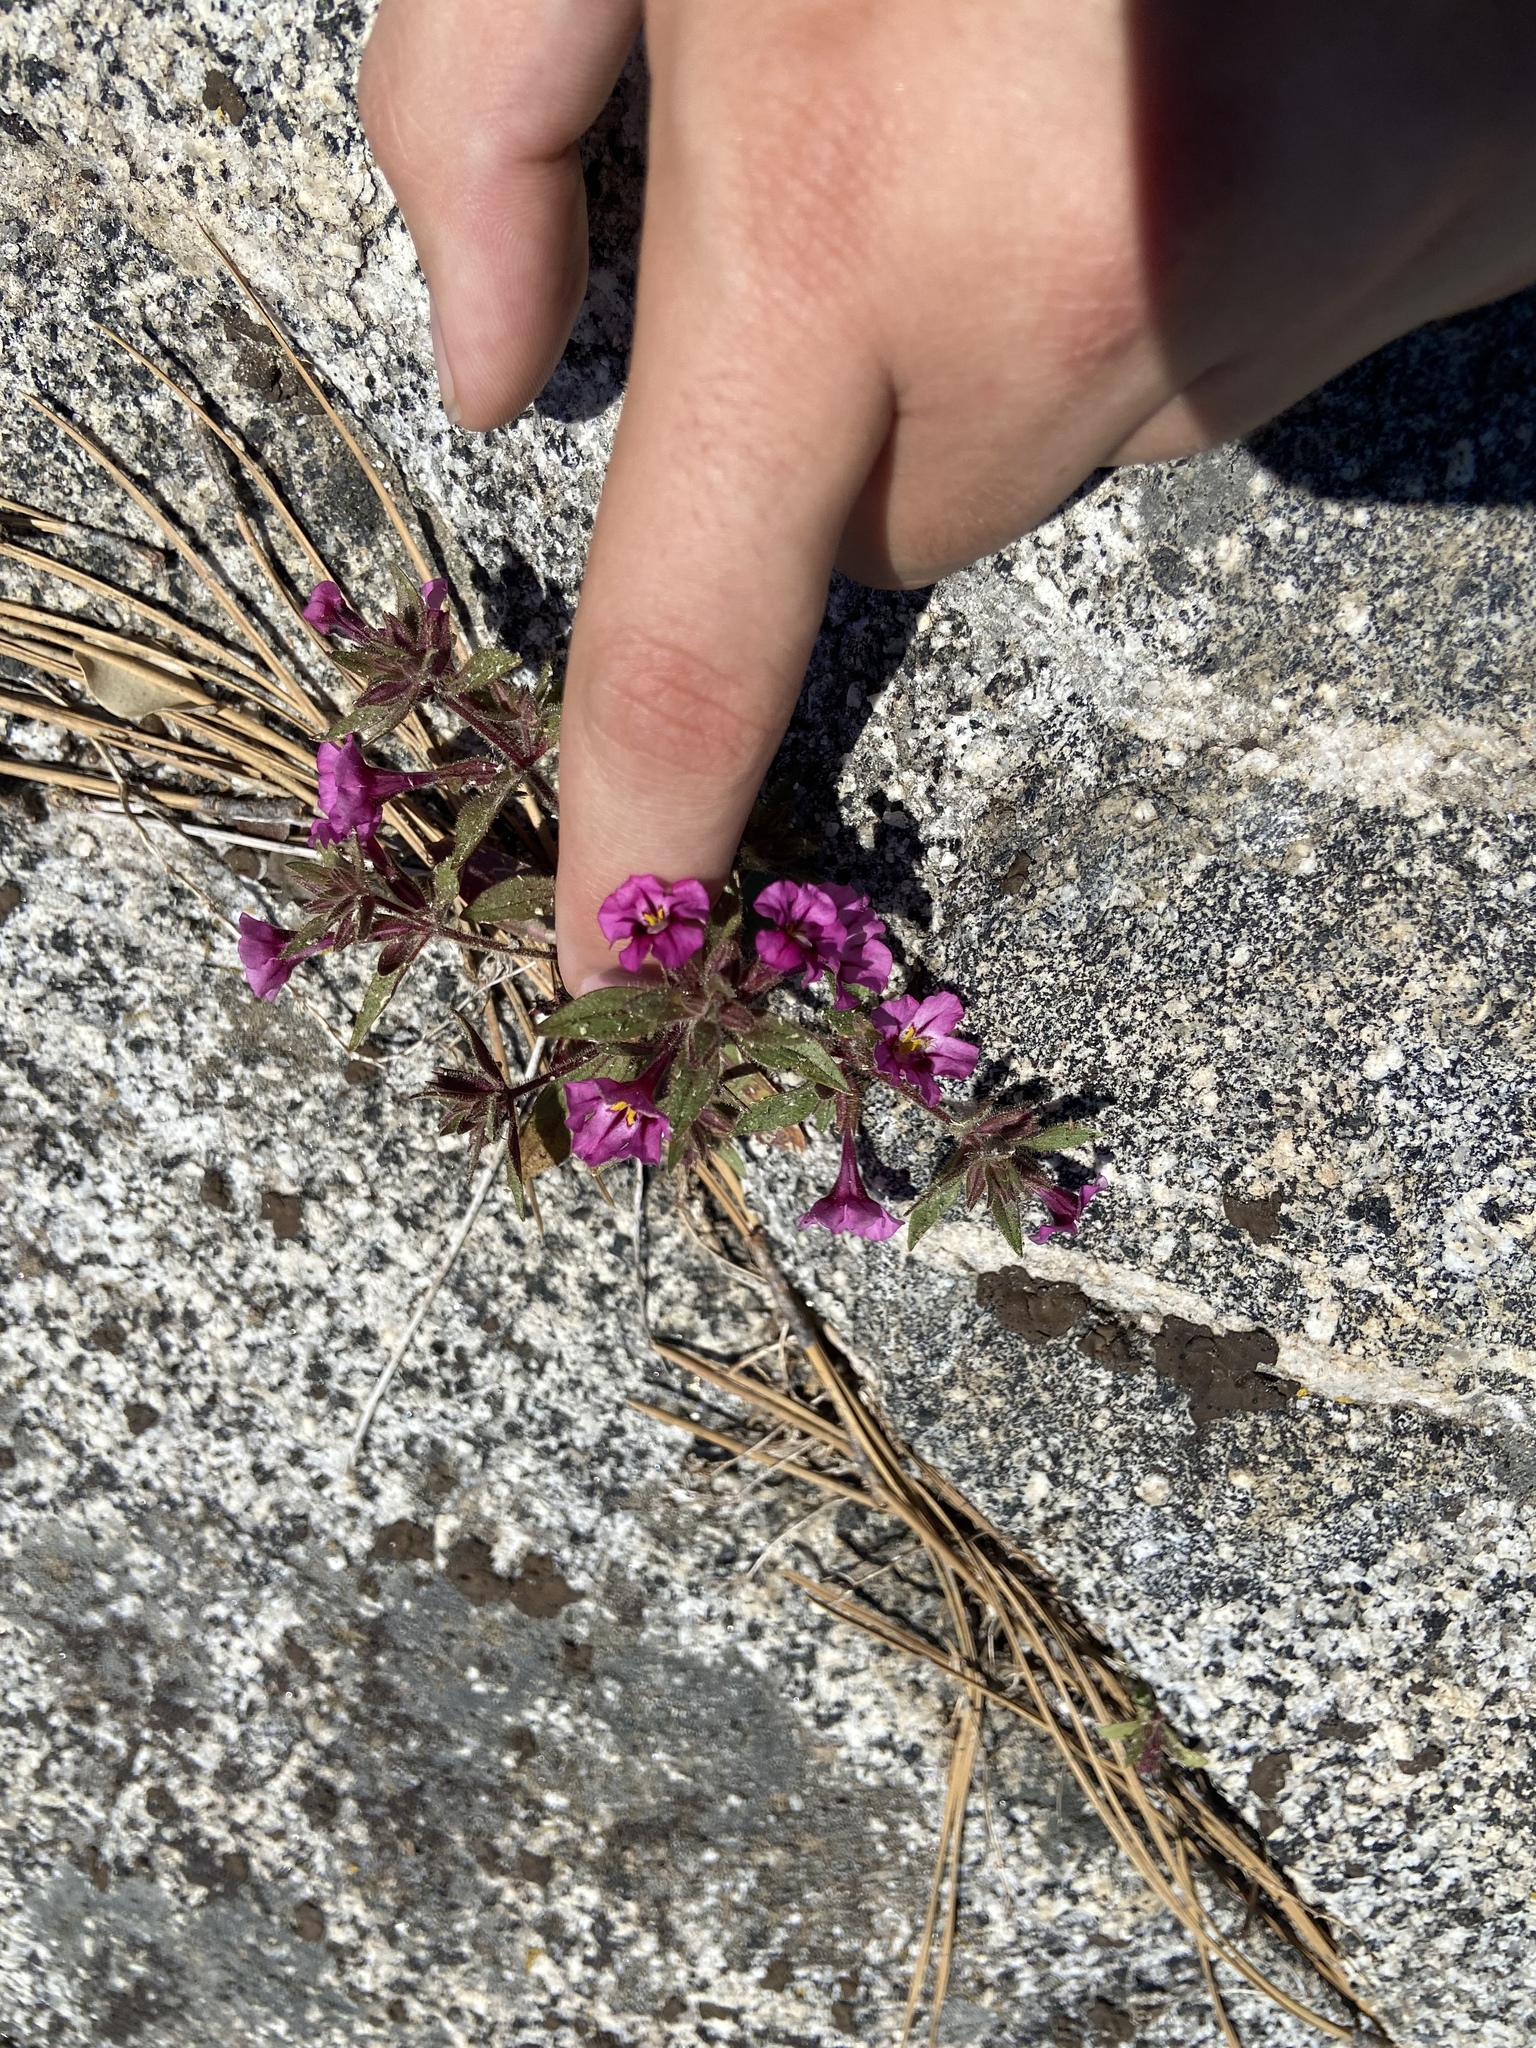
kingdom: Plantae
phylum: Tracheophyta
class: Magnoliopsida
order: Lamiales
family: Phrymaceae
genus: Diplacus
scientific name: Diplacus graniticola
